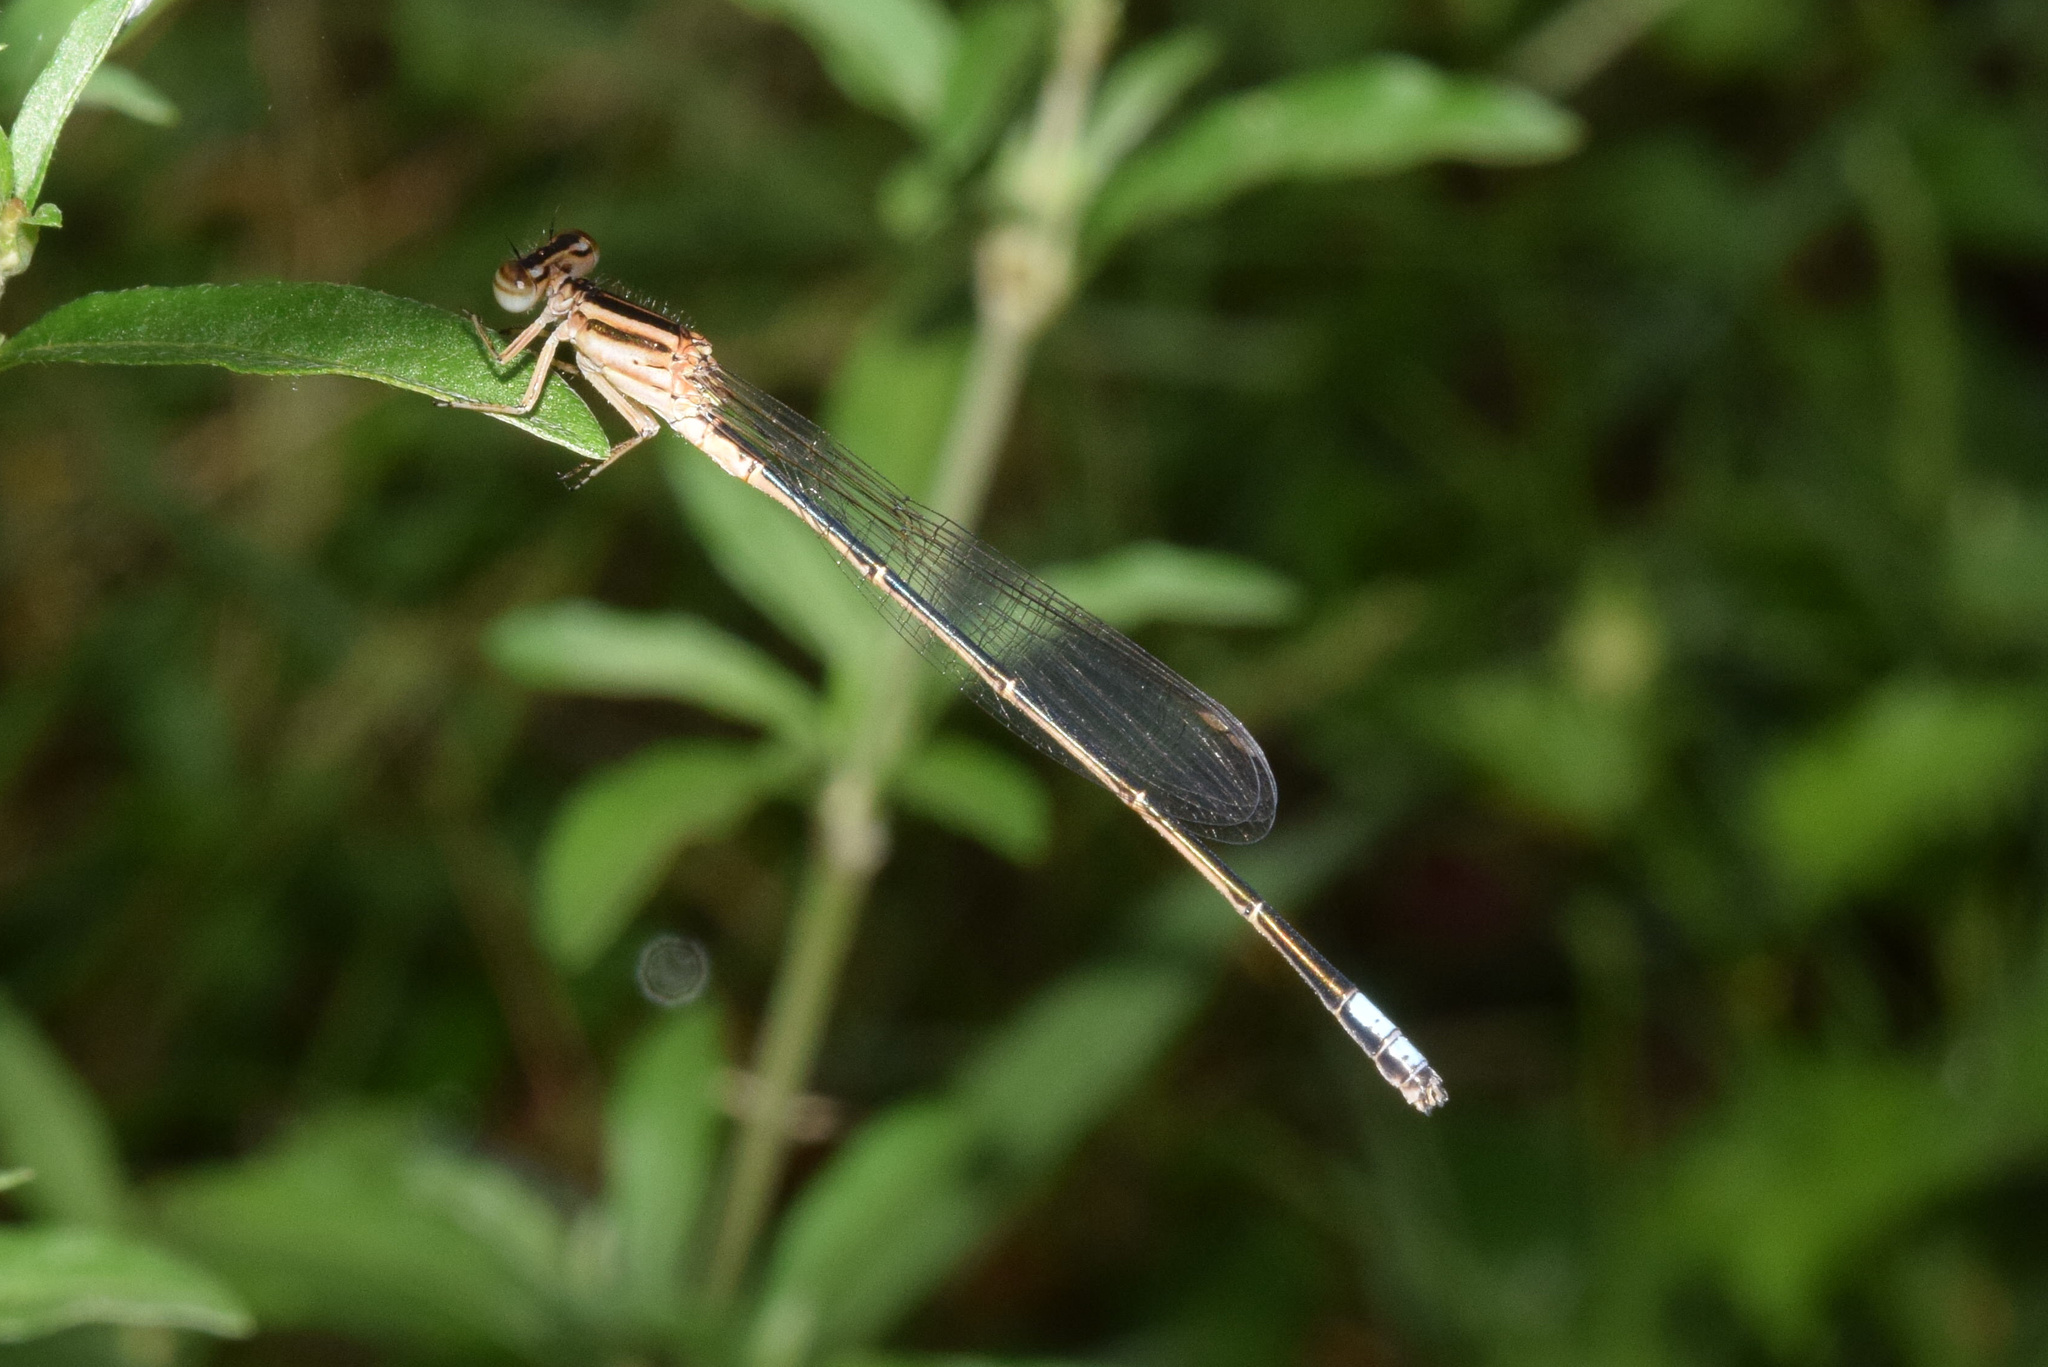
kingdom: Animalia
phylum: Arthropoda
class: Insecta
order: Odonata
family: Coenagrionidae
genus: Pseudagrion
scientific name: Pseudagrion kersteni
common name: Powder-faced sprite
